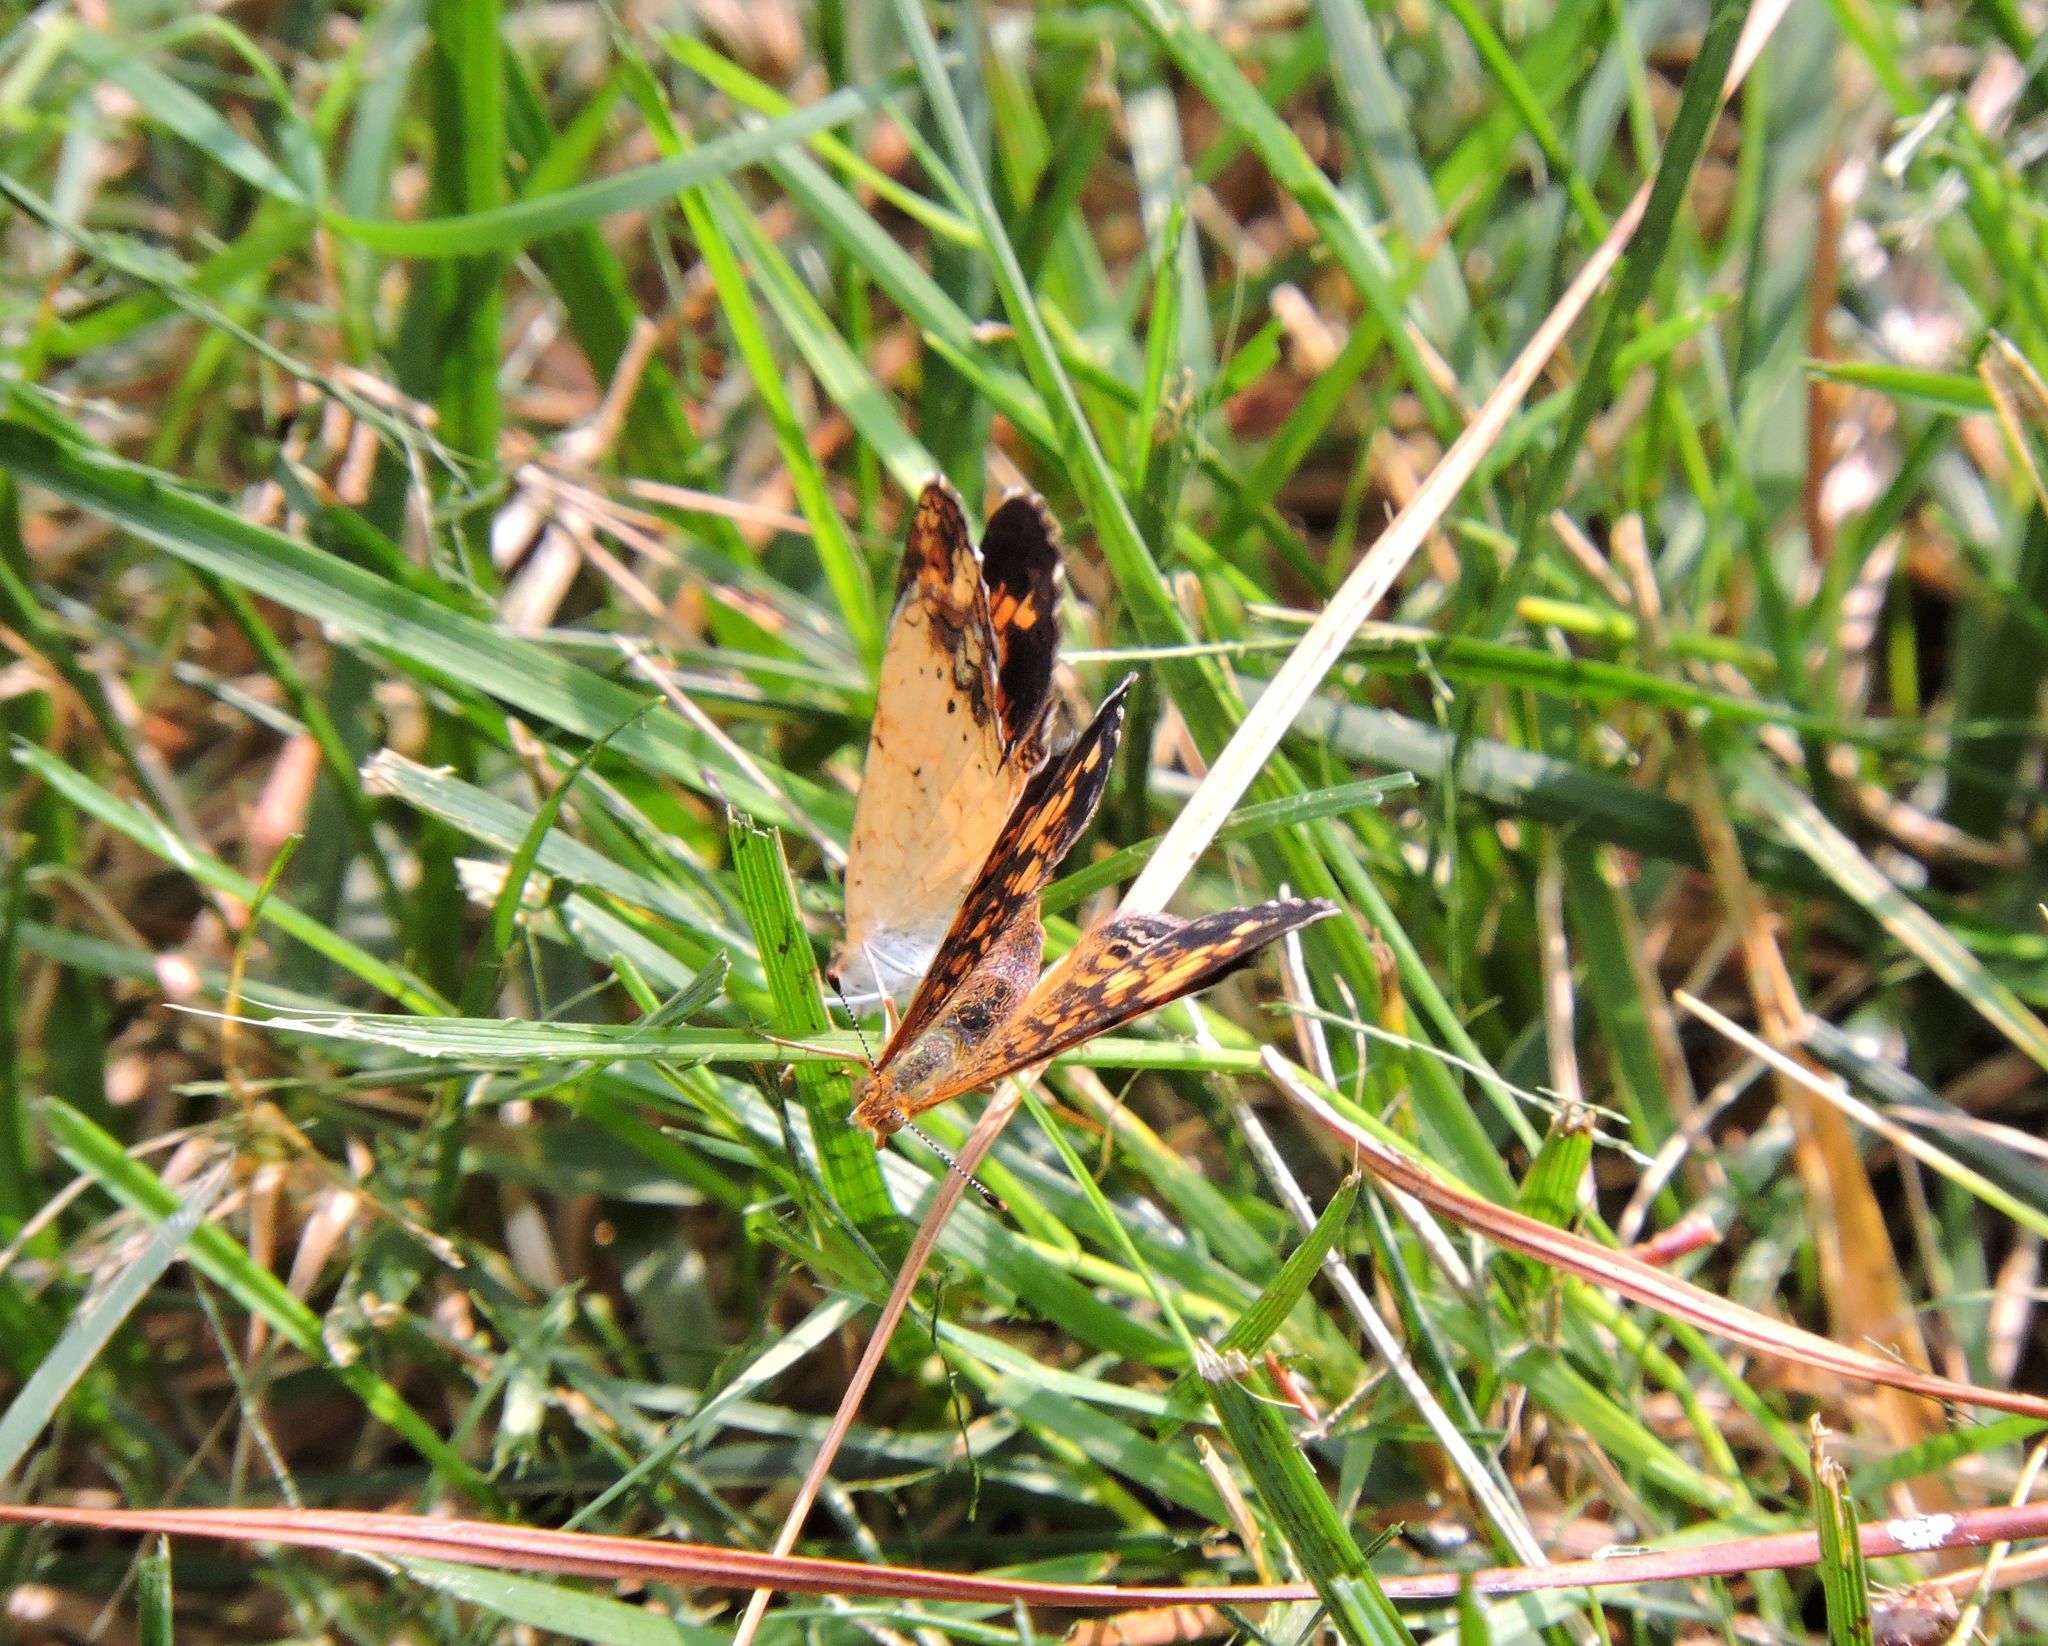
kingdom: Animalia
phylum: Arthropoda
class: Insecta
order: Lepidoptera
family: Nymphalidae
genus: Phyciodes
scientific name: Phyciodes tharos
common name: Pearl crescent
